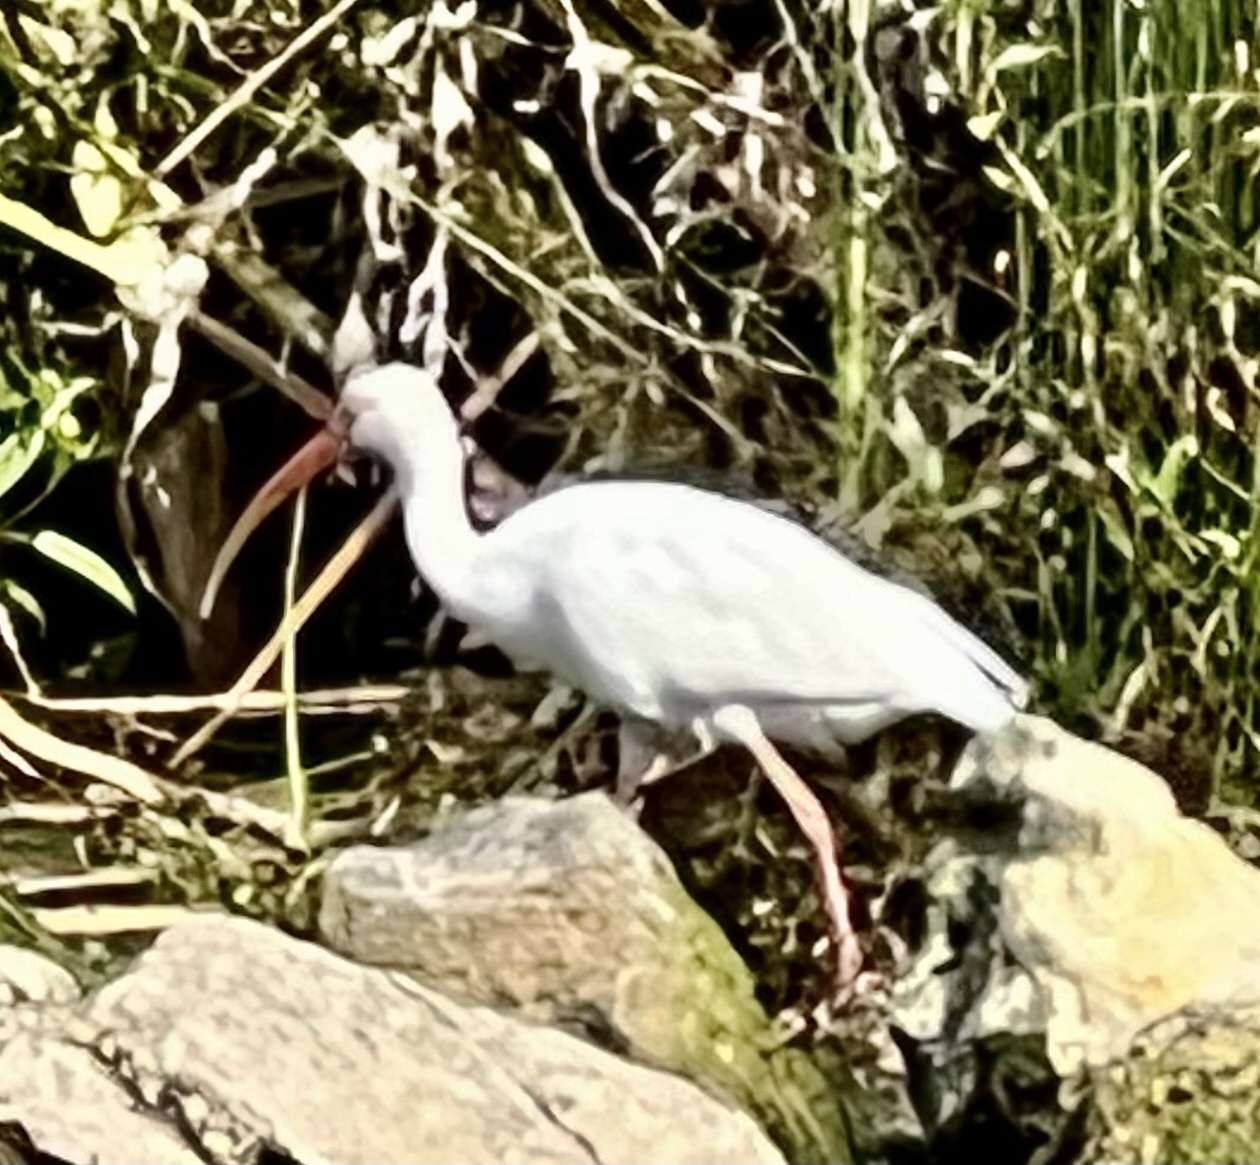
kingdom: Animalia
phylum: Chordata
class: Aves
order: Pelecaniformes
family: Threskiornithidae
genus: Eudocimus
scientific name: Eudocimus albus
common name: White ibis
